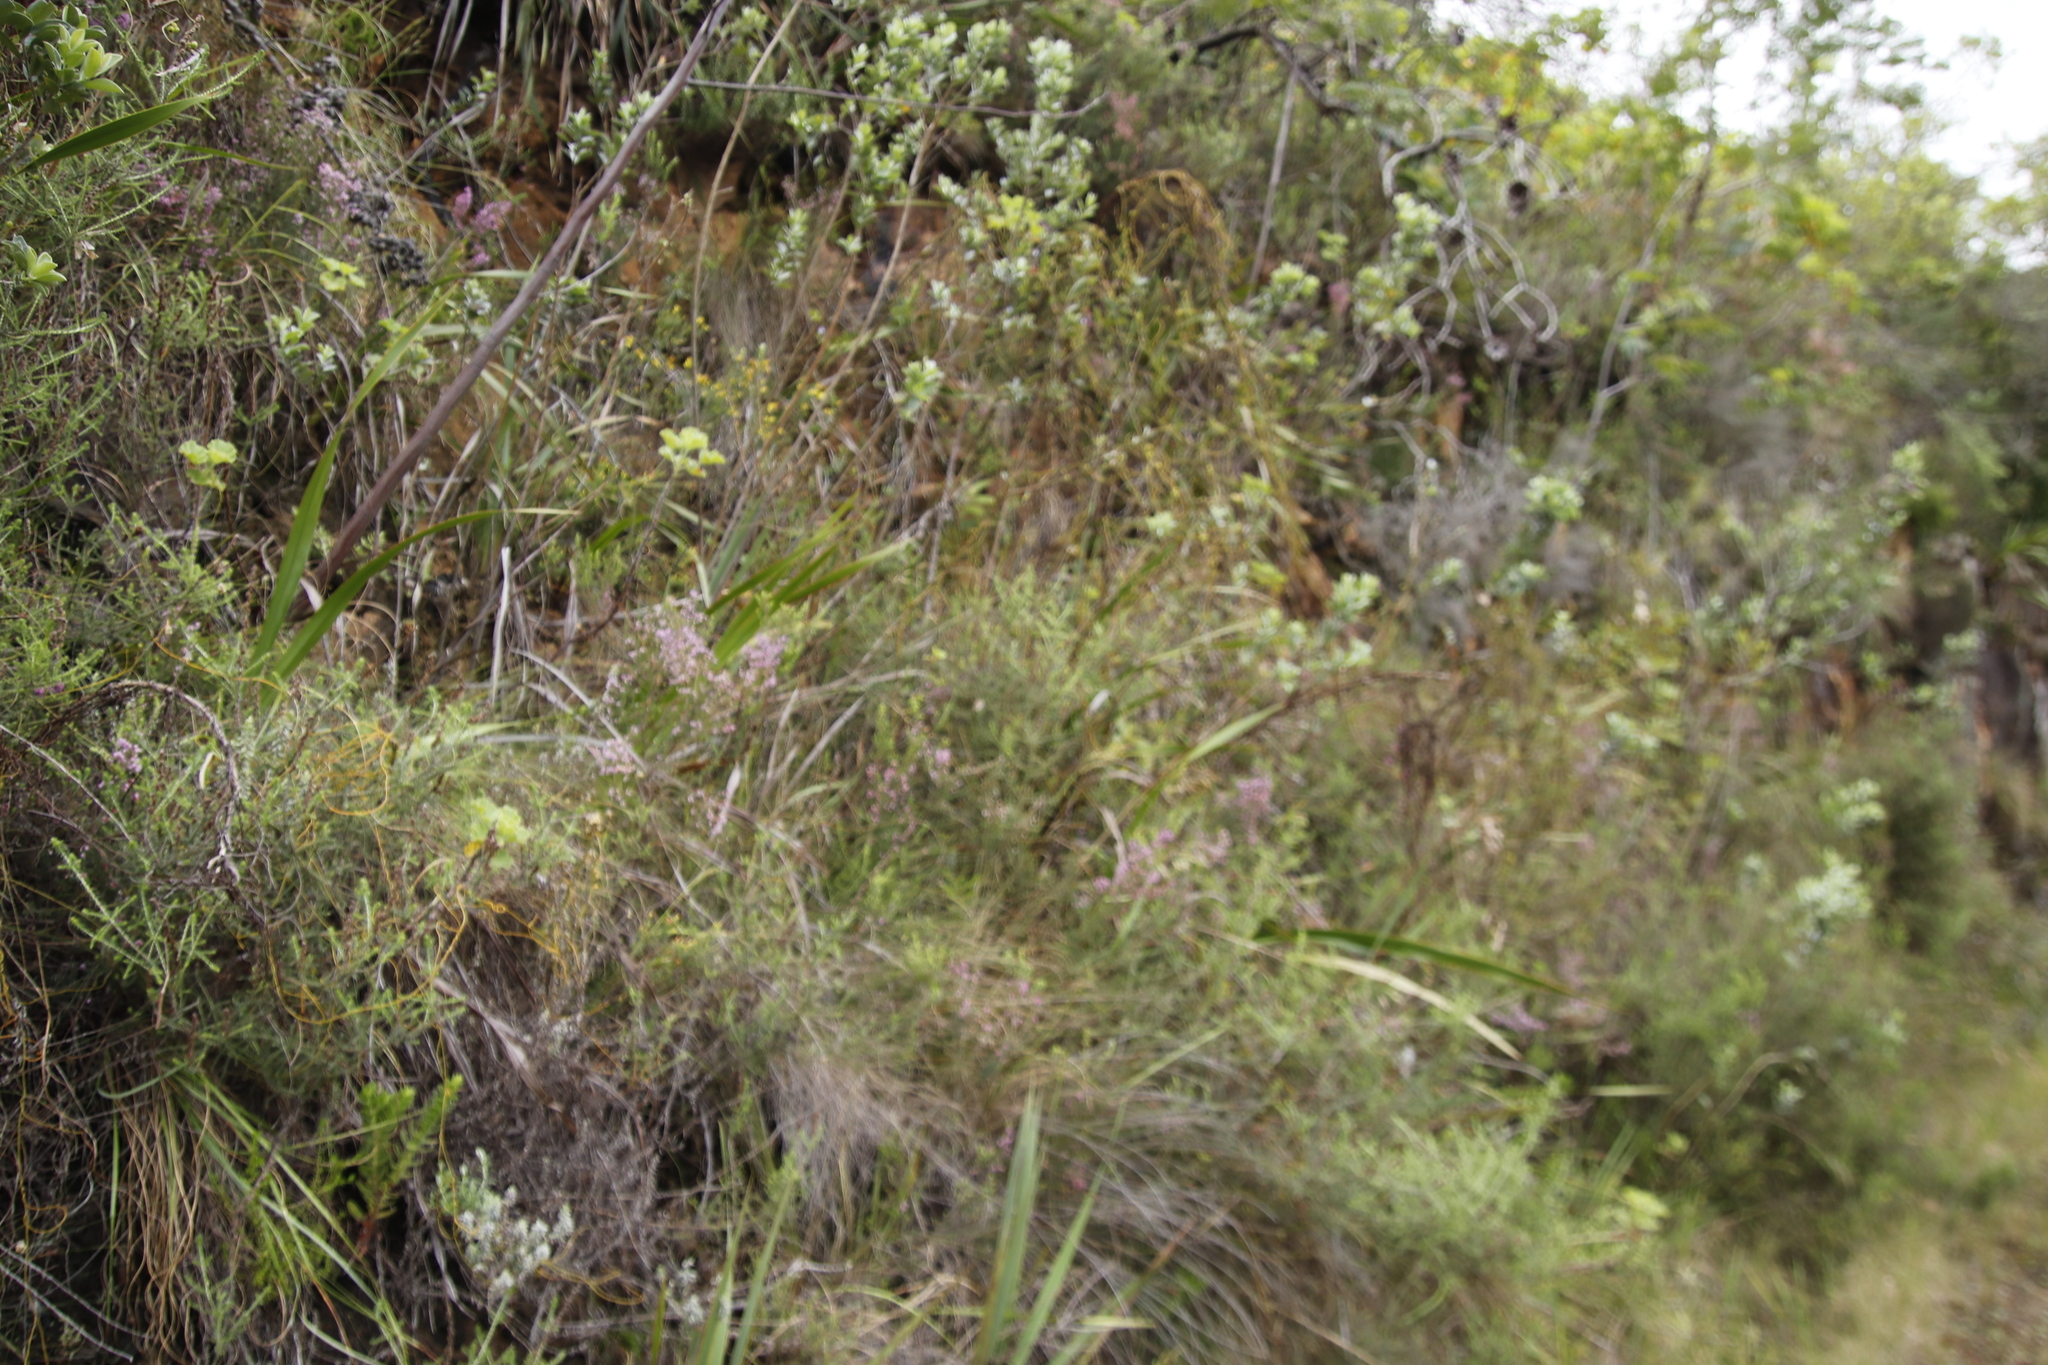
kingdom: Plantae
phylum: Tracheophyta
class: Magnoliopsida
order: Ericales
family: Ericaceae
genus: Erica
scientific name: Erica hirtiflora
